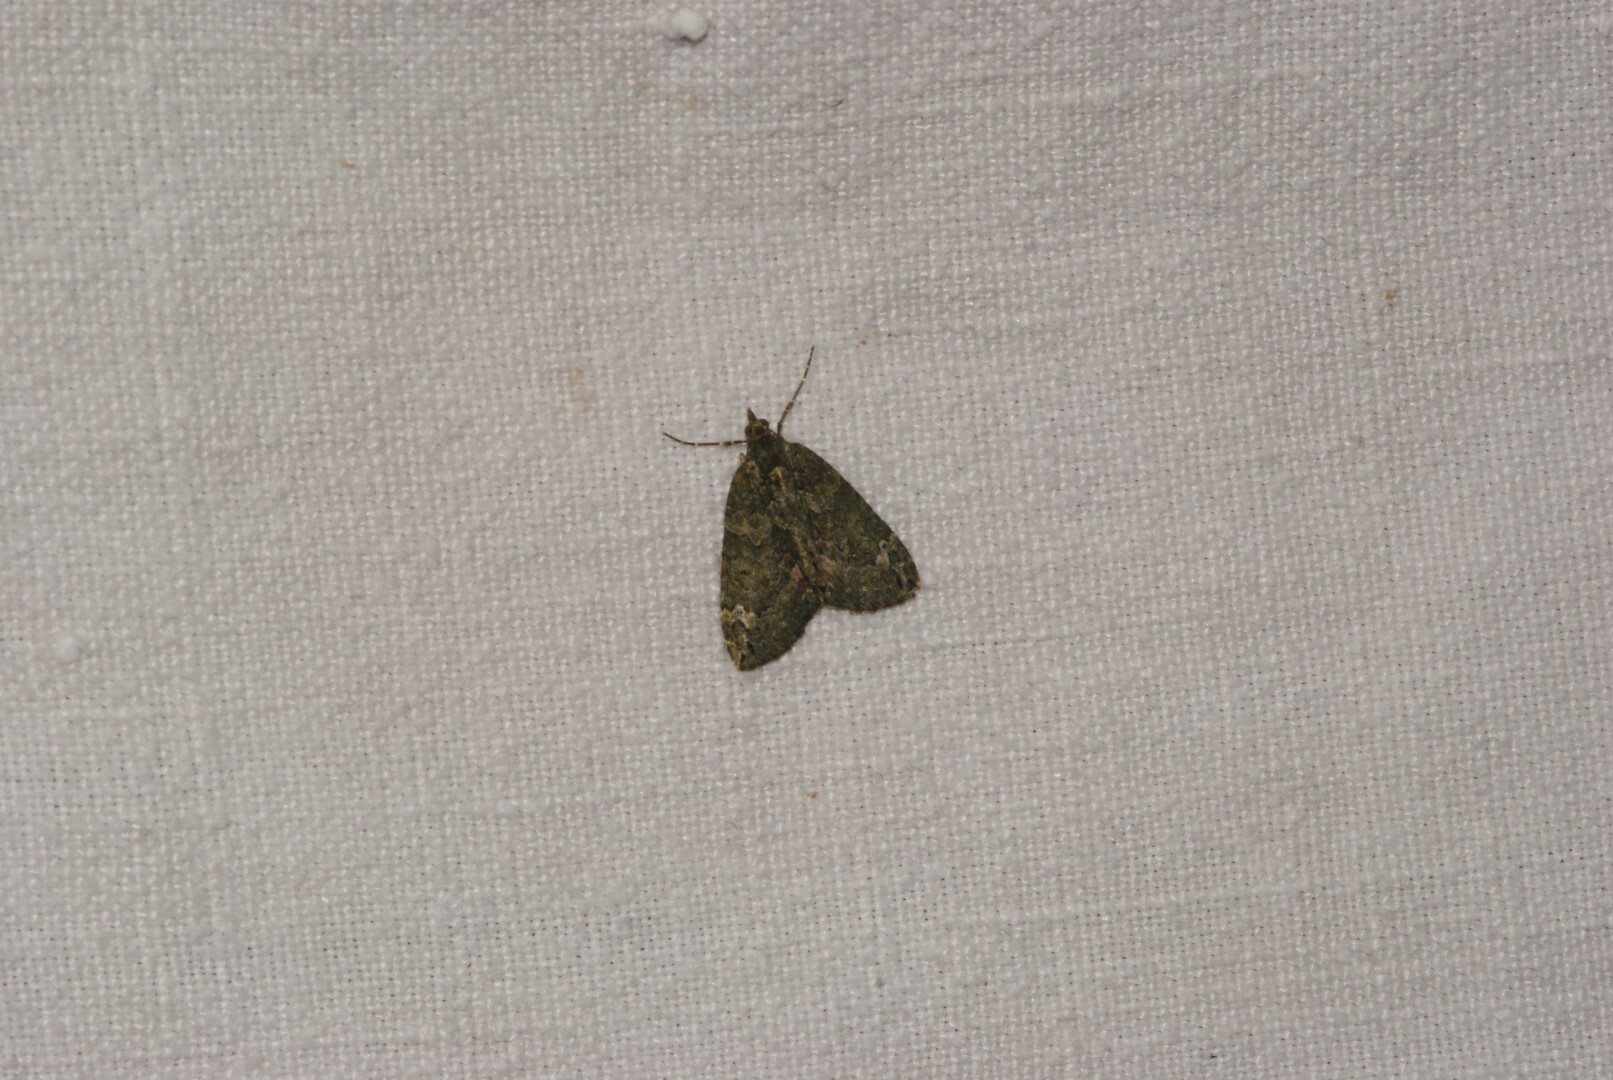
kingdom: Animalia
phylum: Arthropoda
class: Insecta
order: Lepidoptera
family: Geometridae
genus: Chloroclysta
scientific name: Chloroclysta siterata
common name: Red-green carpet
